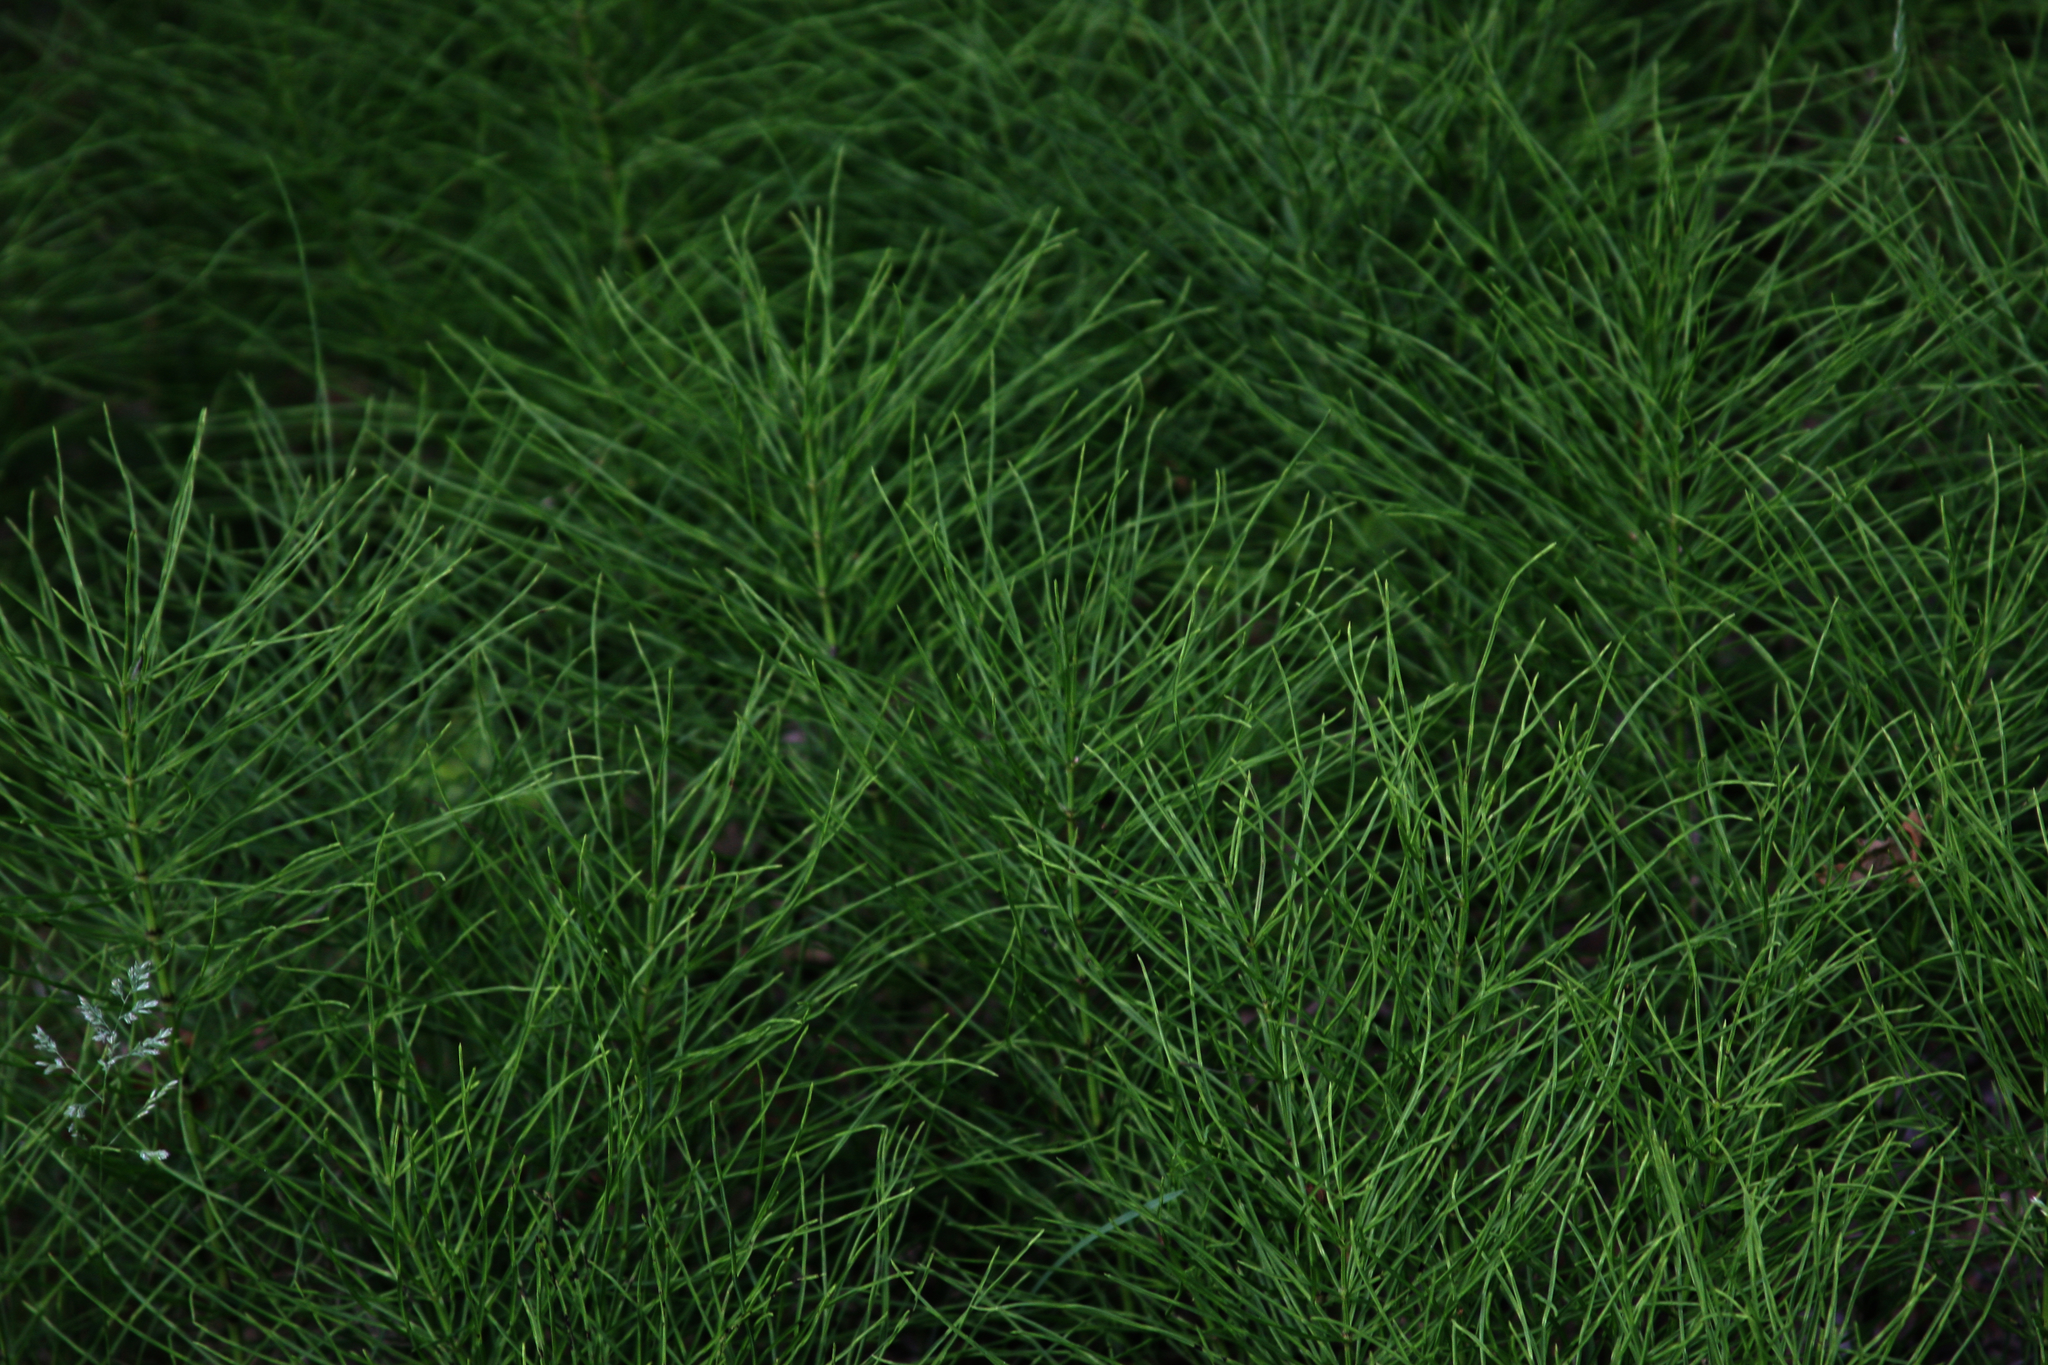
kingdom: Plantae
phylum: Tracheophyta
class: Polypodiopsida
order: Equisetales
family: Equisetaceae
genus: Equisetum
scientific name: Equisetum arvense
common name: Field horsetail
